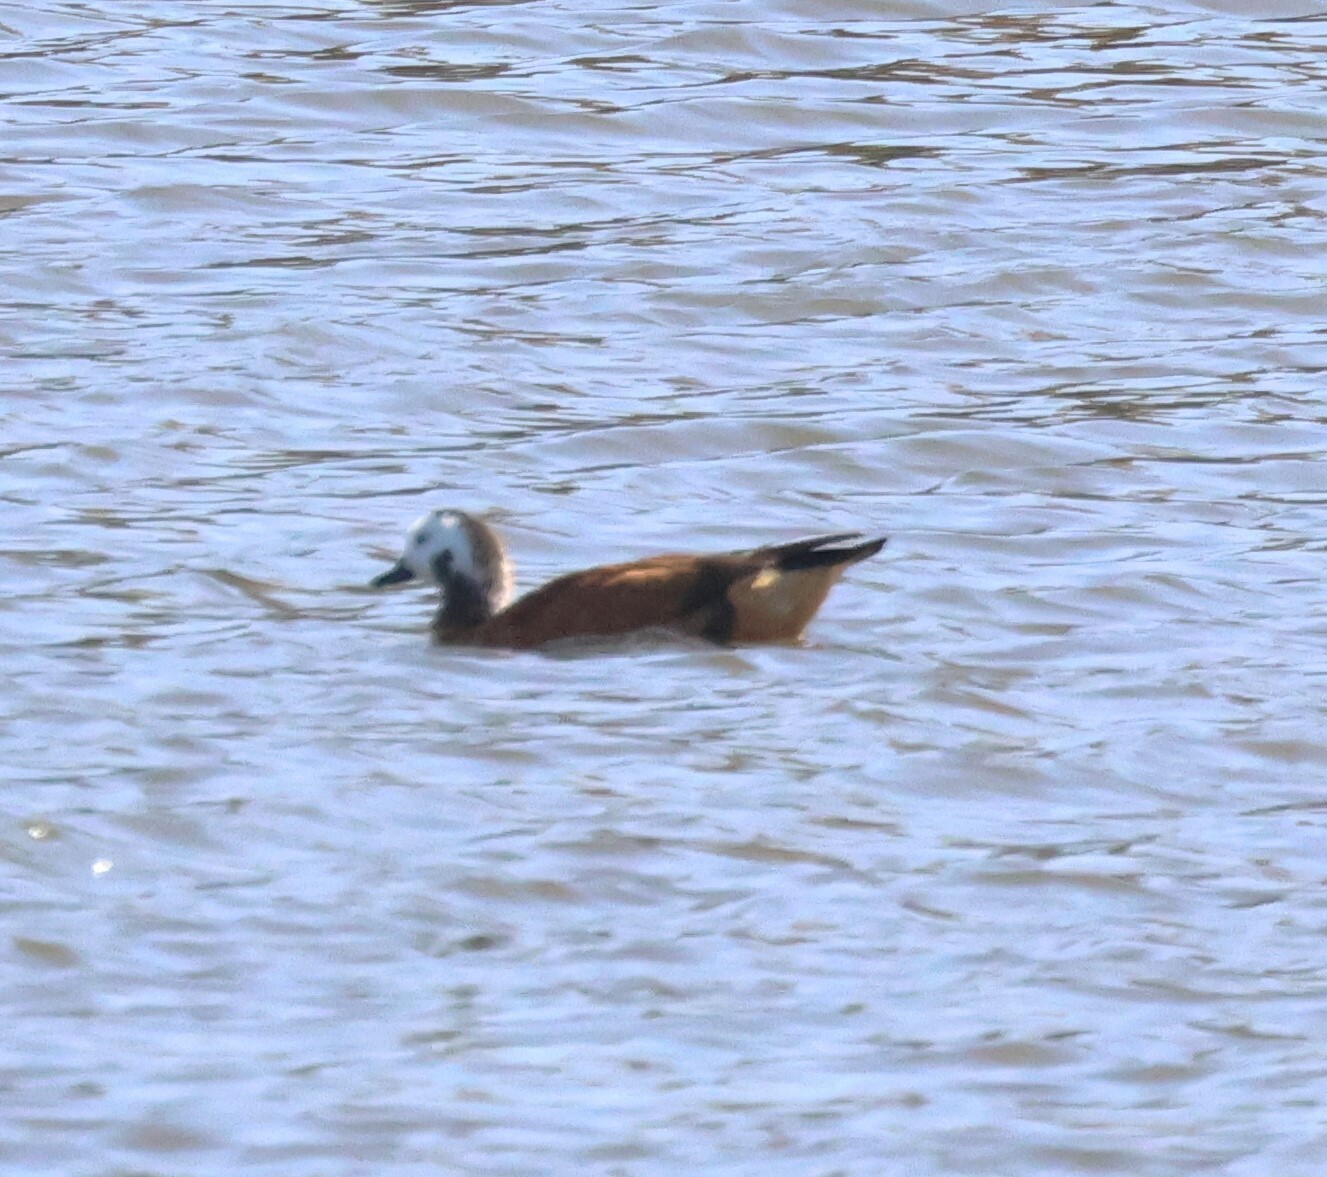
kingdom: Animalia
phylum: Chordata
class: Aves
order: Anseriformes
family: Anatidae
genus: Tadorna
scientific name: Tadorna cana
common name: South african shelduck
